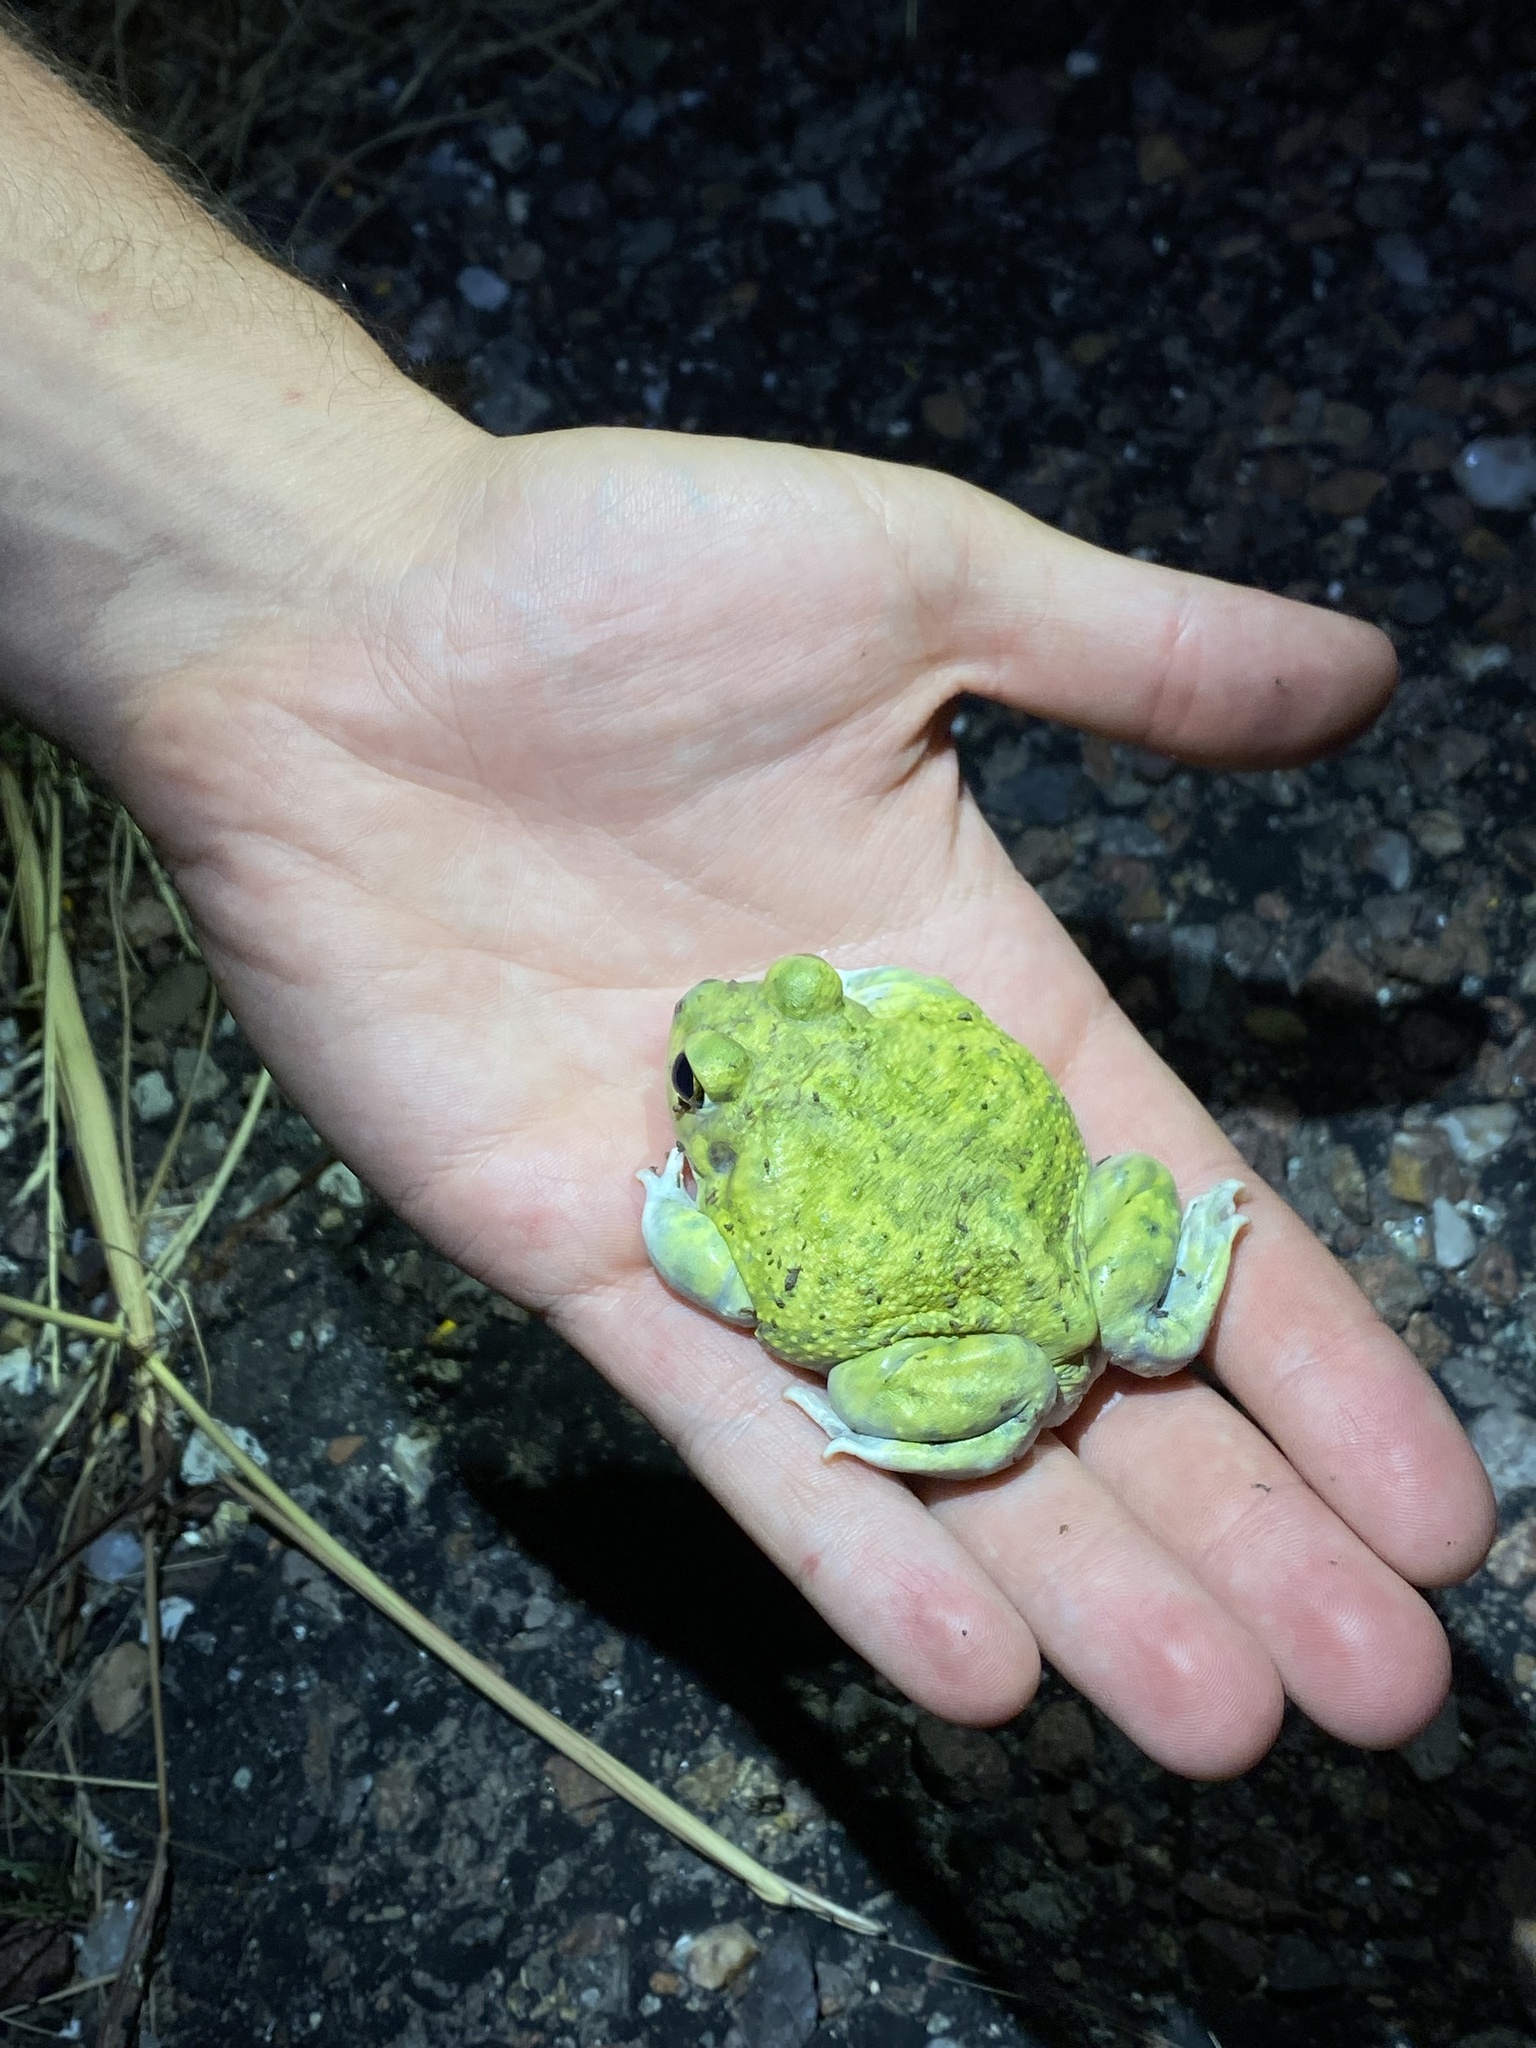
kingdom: Animalia
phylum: Chordata
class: Amphibia
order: Anura
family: Scaphiopodidae
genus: Scaphiopus
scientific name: Scaphiopus couchii
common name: Couch's spadefoot toad
